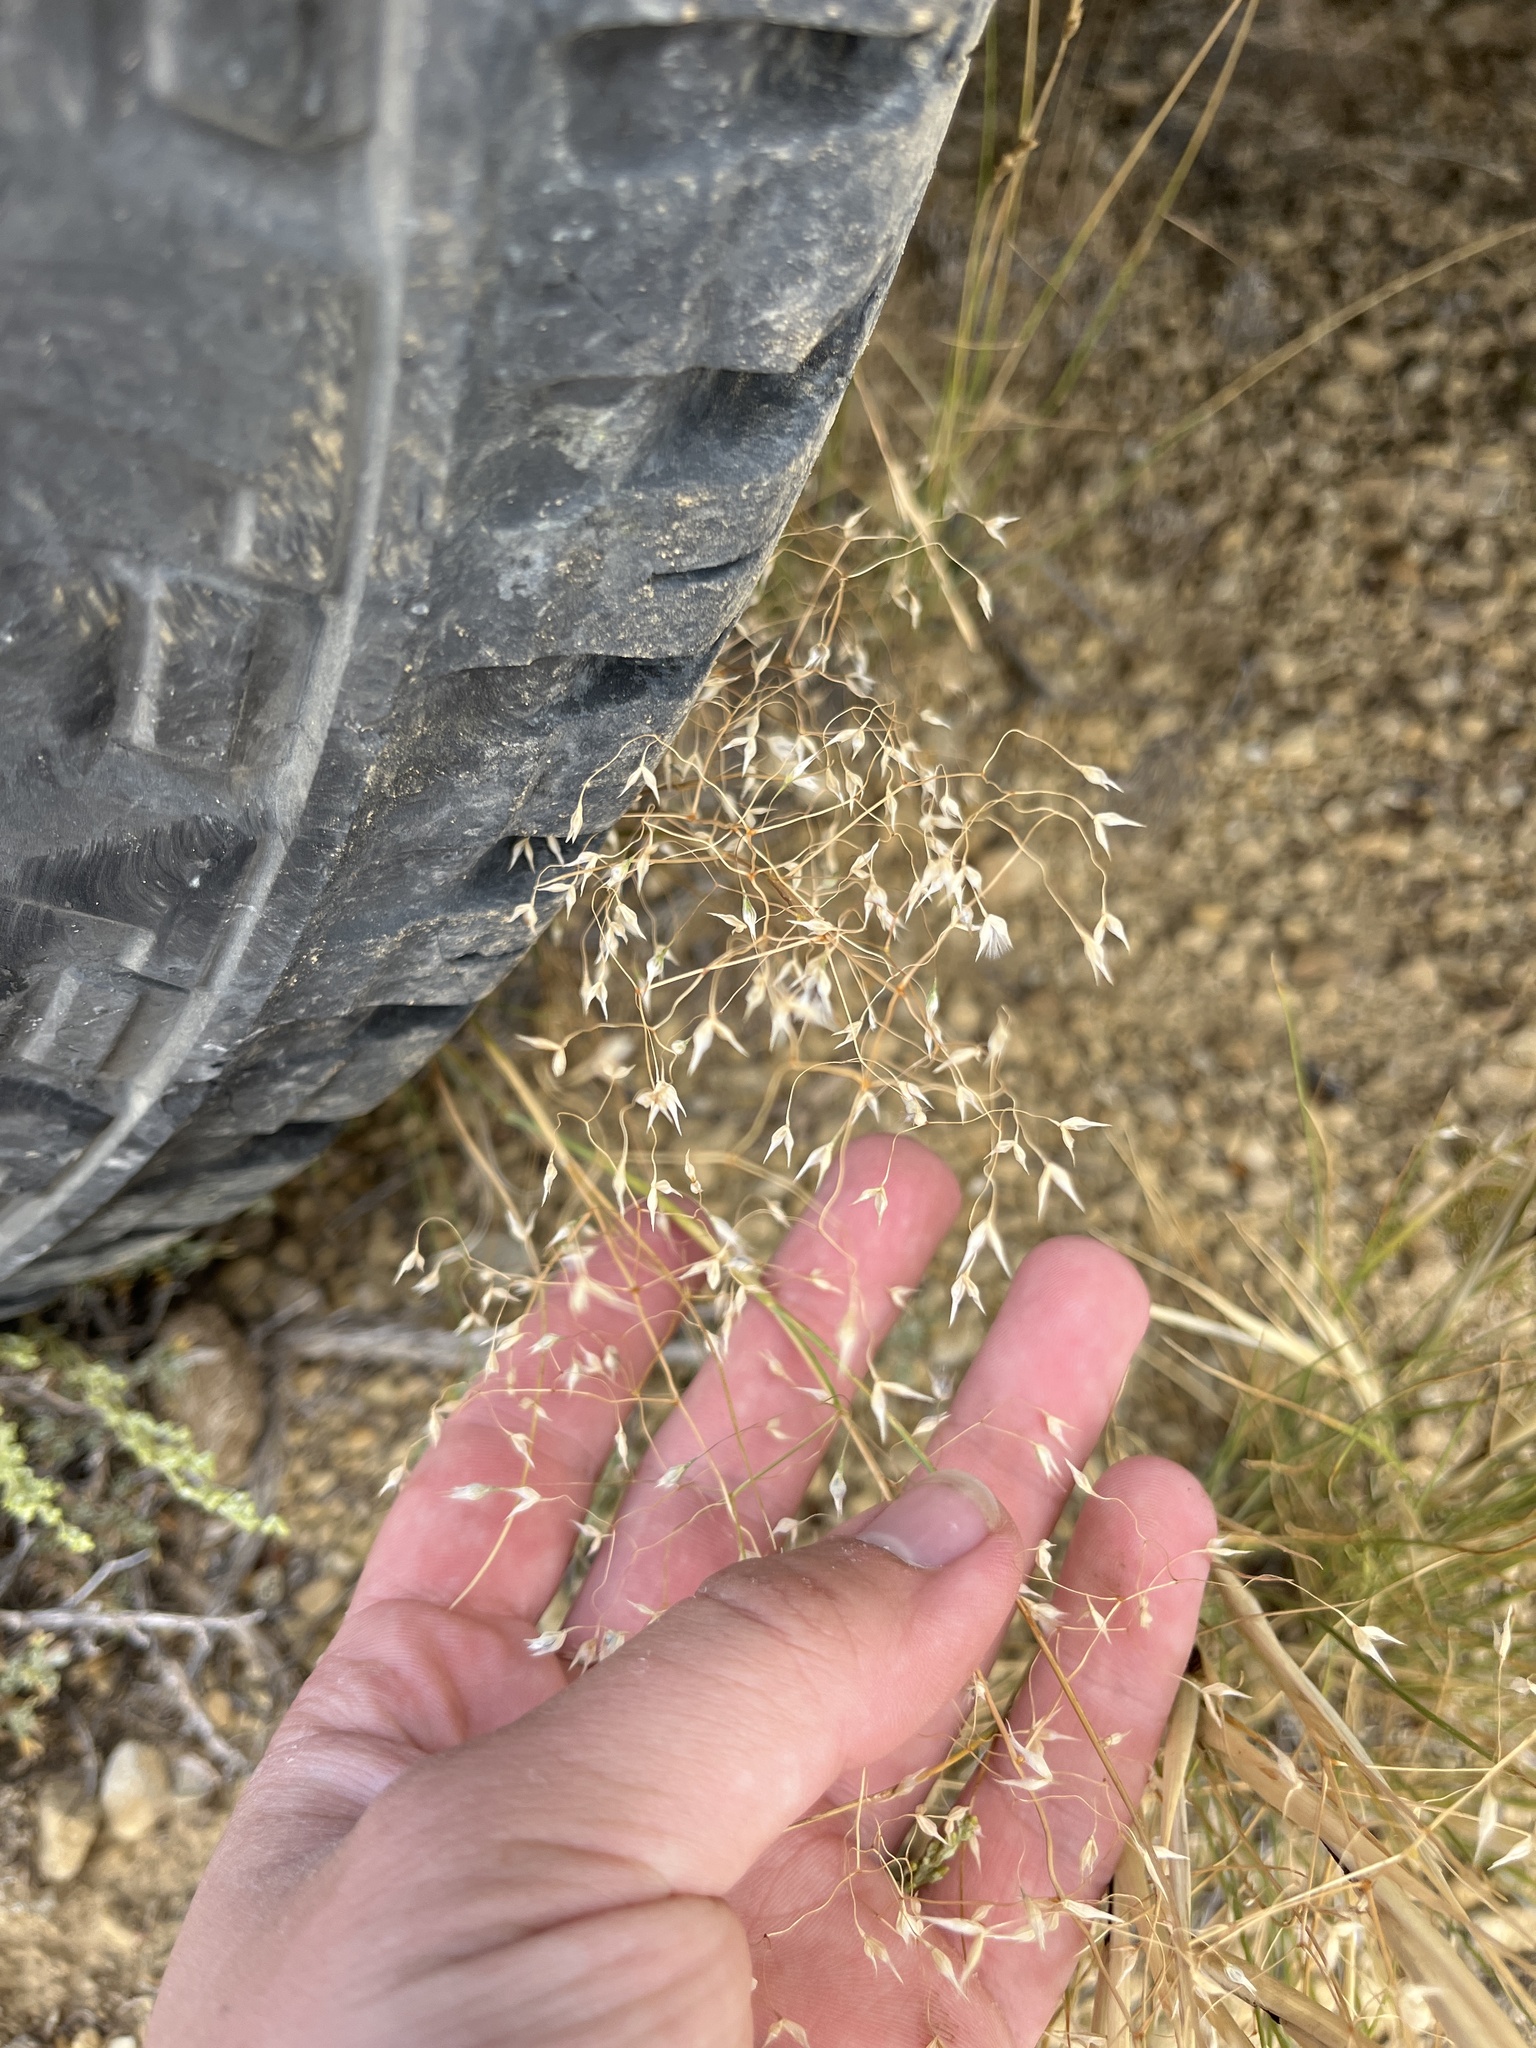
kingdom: Plantae
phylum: Tracheophyta
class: Liliopsida
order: Poales
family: Poaceae
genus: Eriocoma
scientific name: Eriocoma hymenoides
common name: Indian mountain ricegrass
